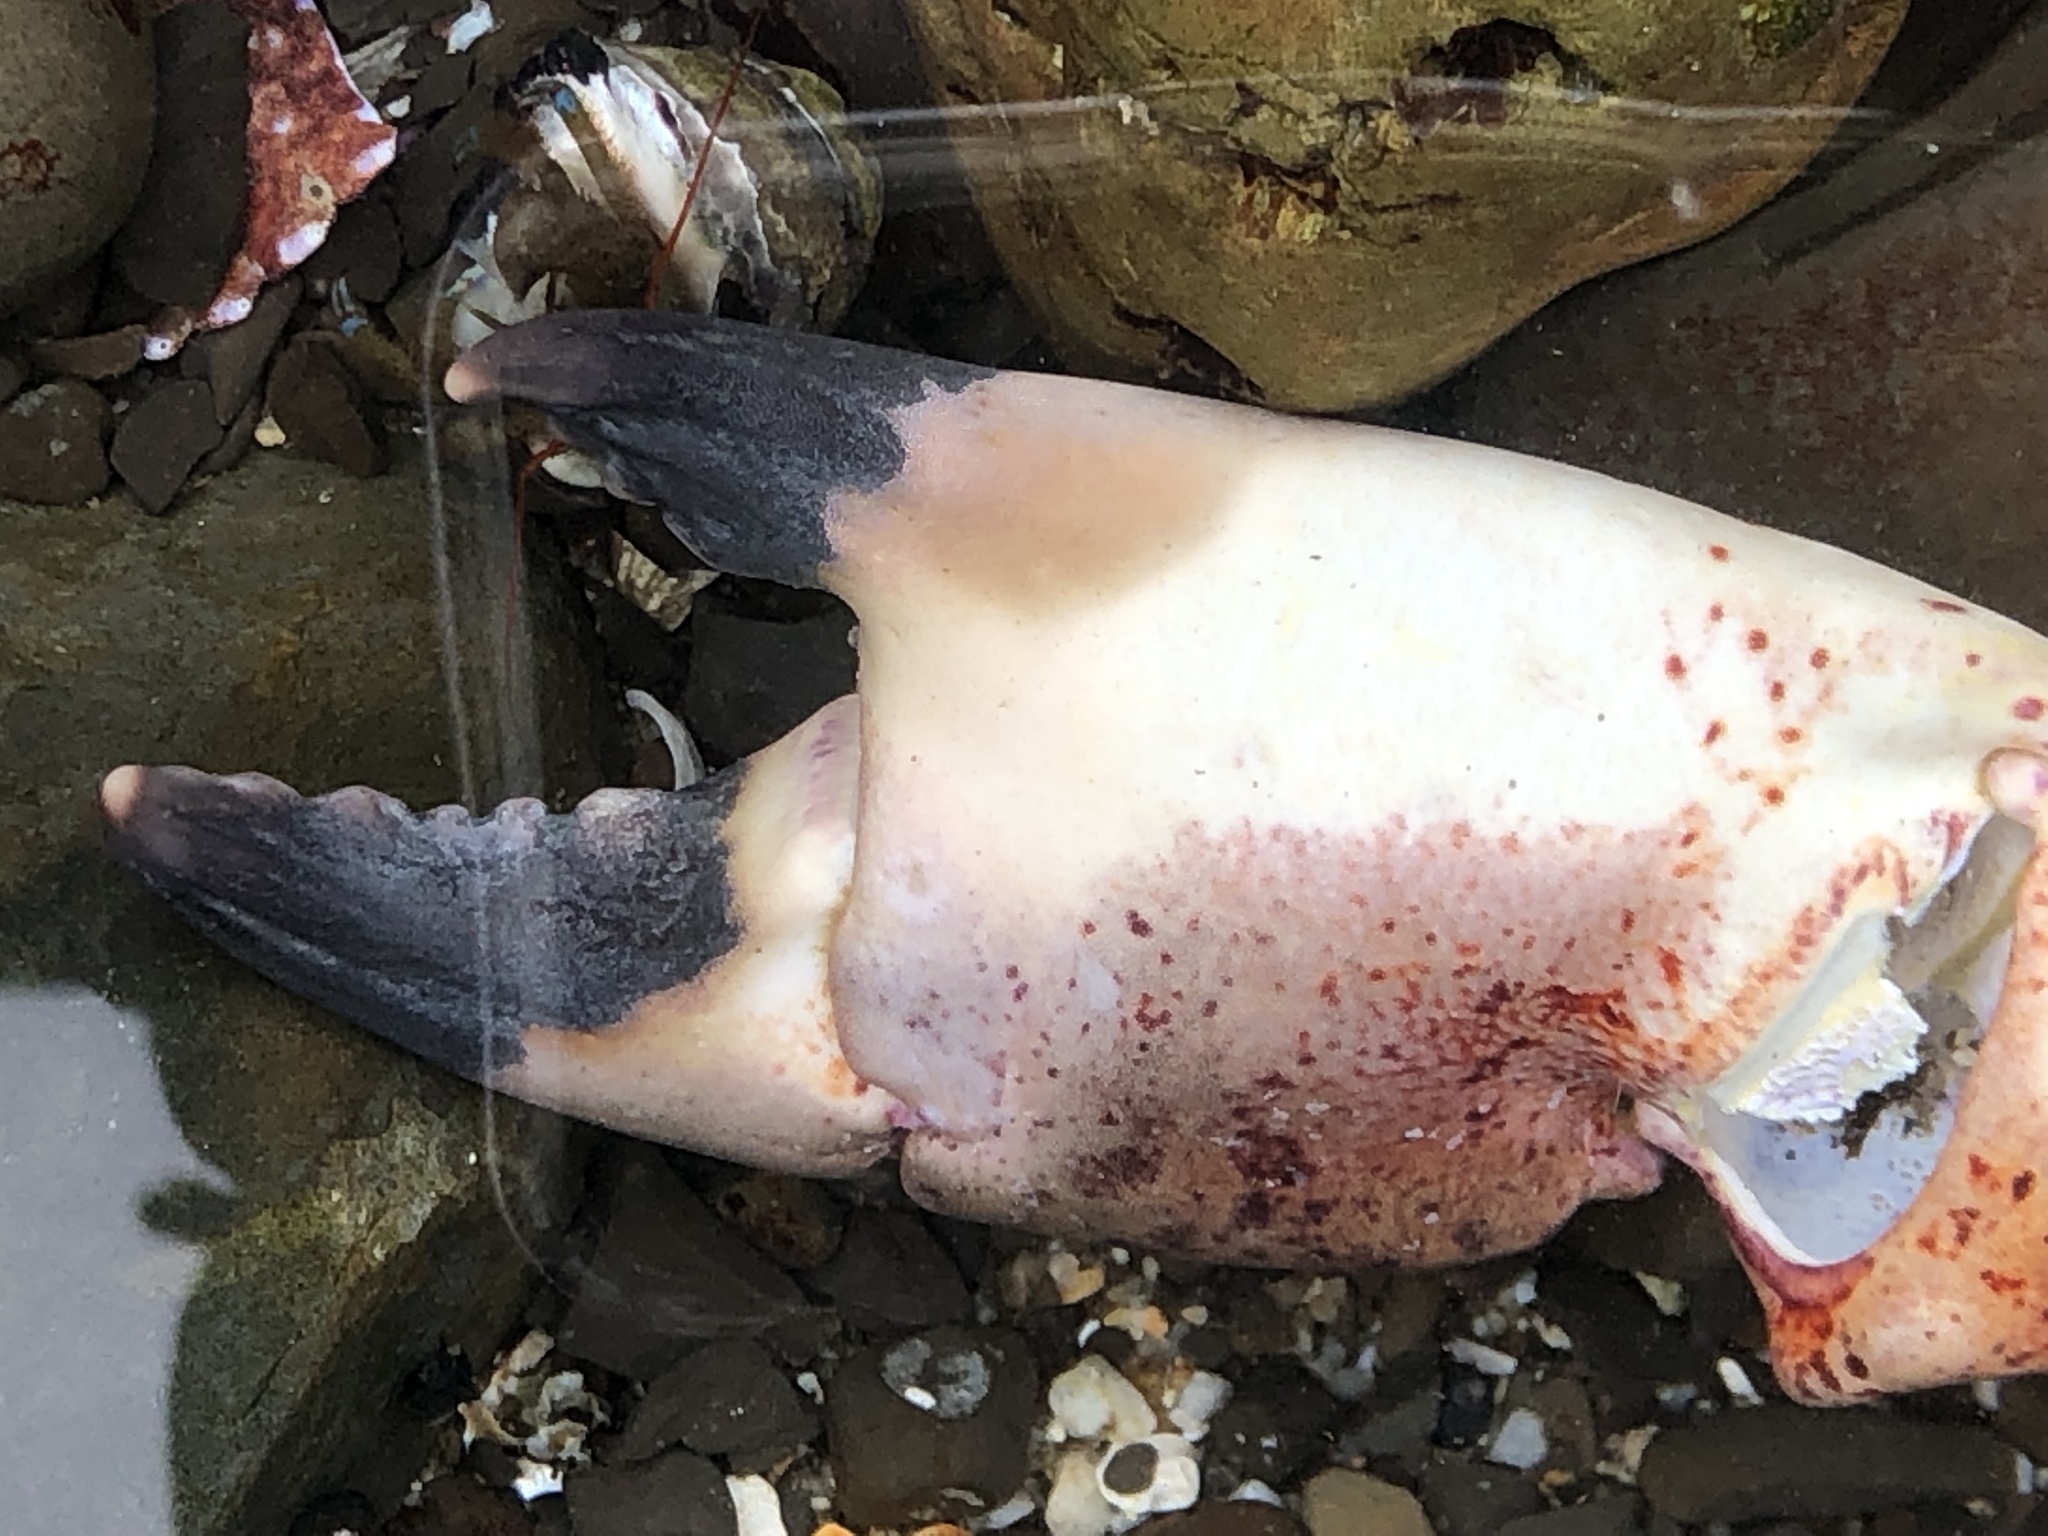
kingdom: Animalia
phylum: Arthropoda
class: Malacostraca
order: Decapoda
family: Cancridae
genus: Romaleon
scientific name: Romaleon antennarium
